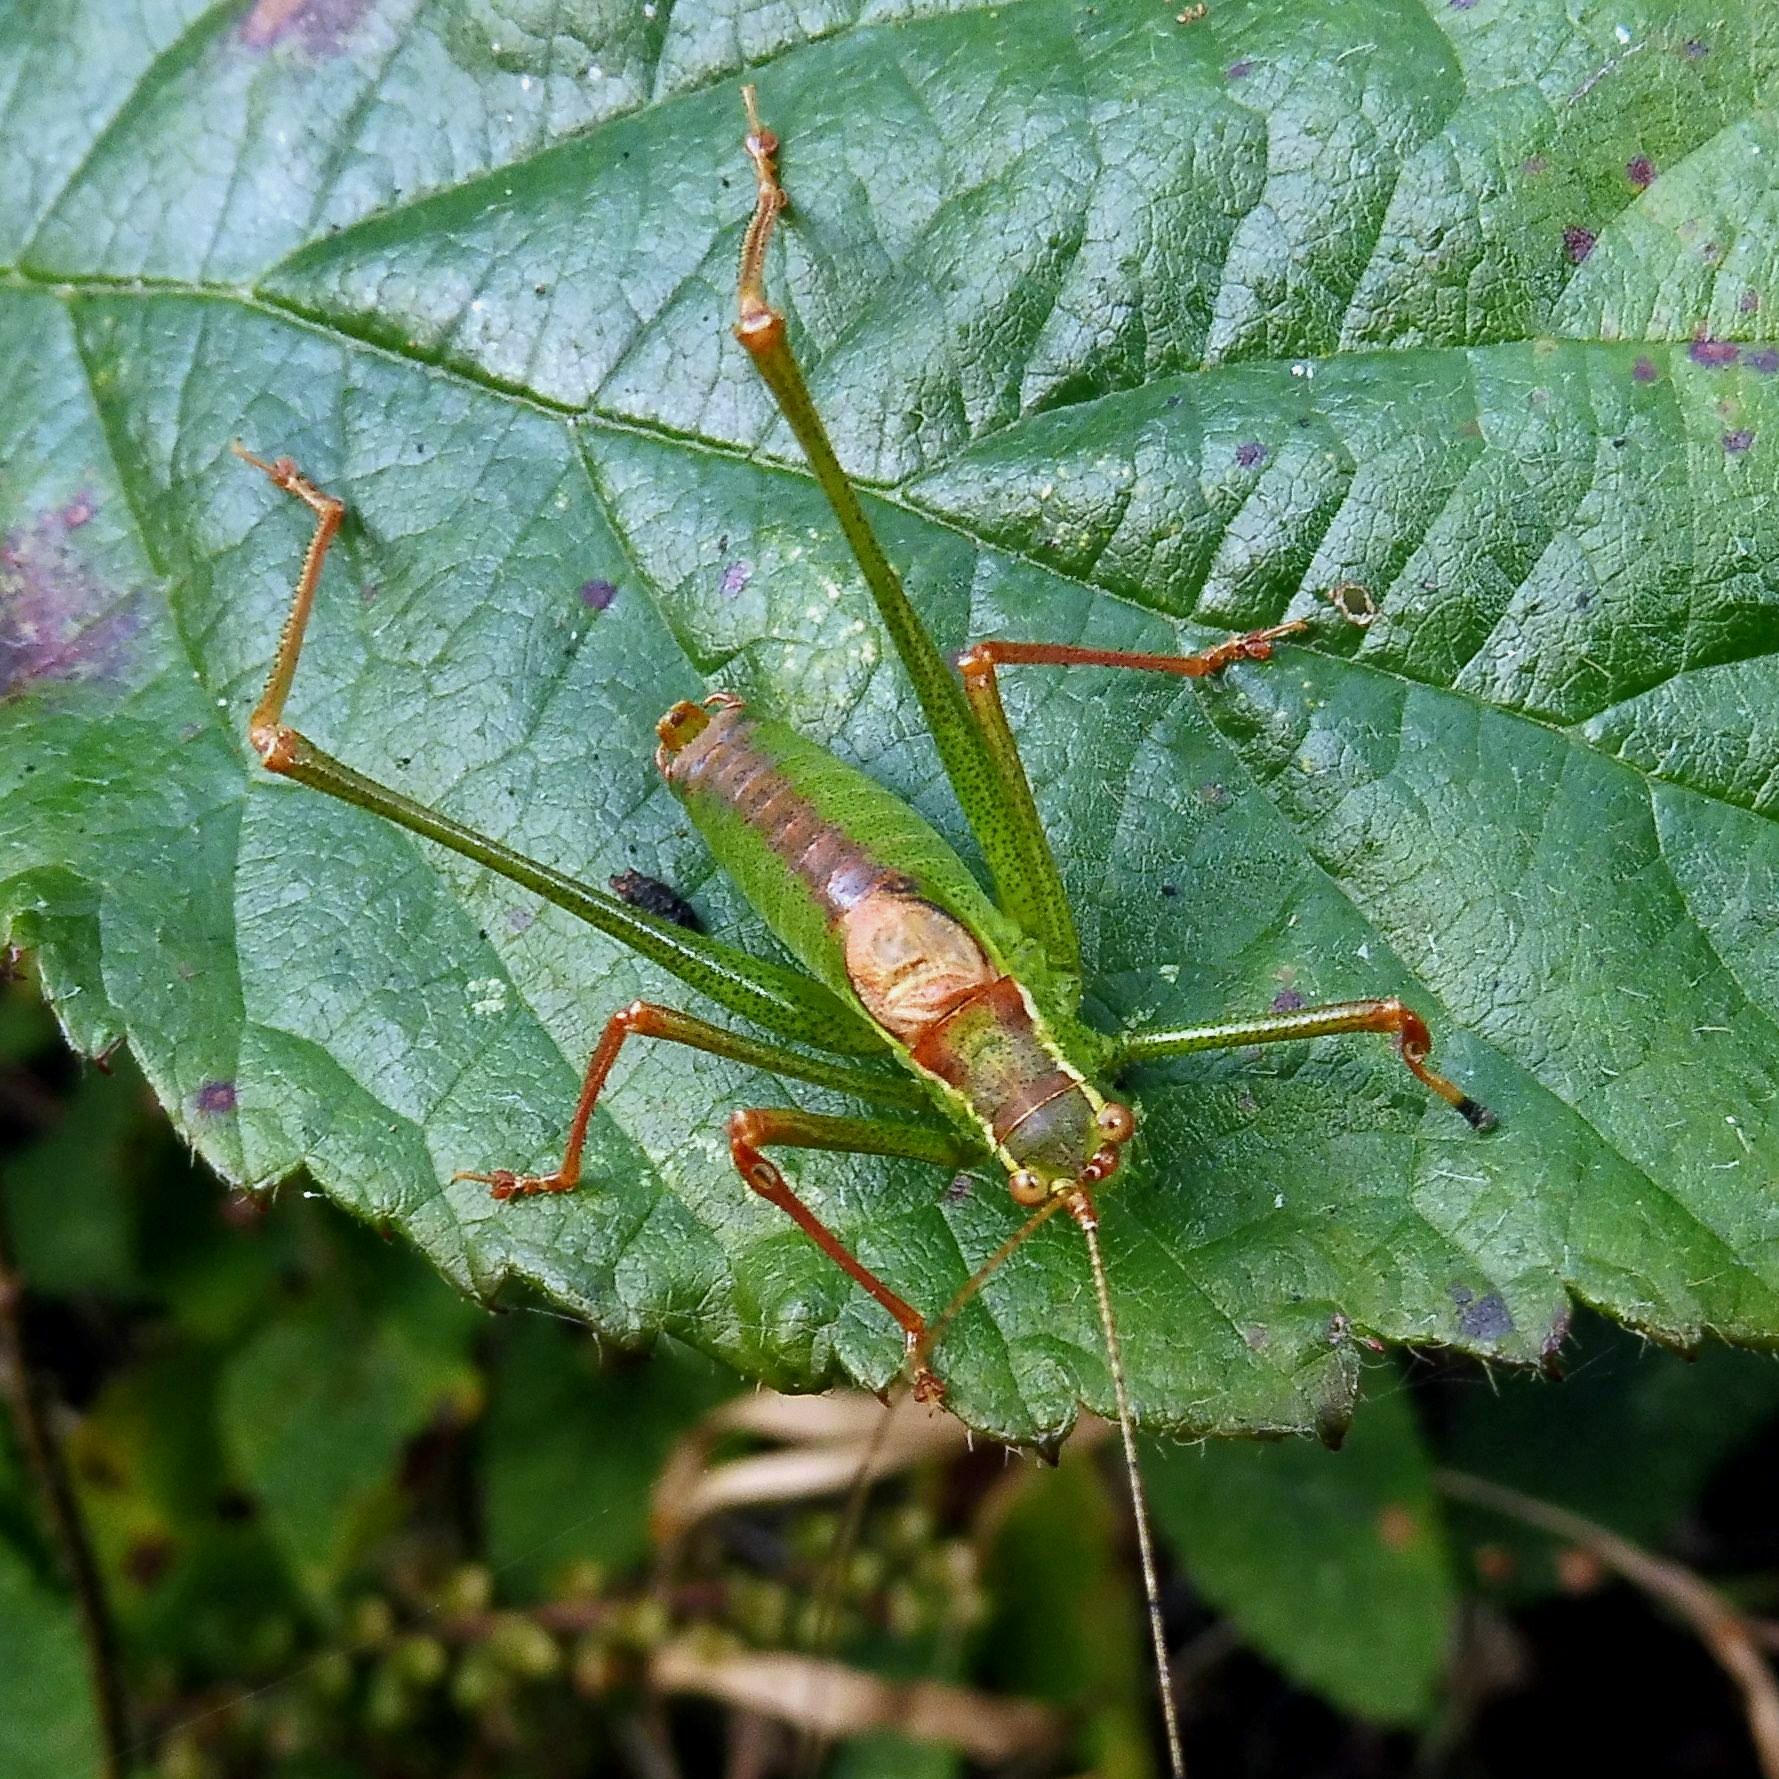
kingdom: Animalia
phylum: Arthropoda
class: Insecta
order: Orthoptera
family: Tettigoniidae
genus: Leptophyes
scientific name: Leptophyes punctatissima
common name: Speckled bush-cricket
